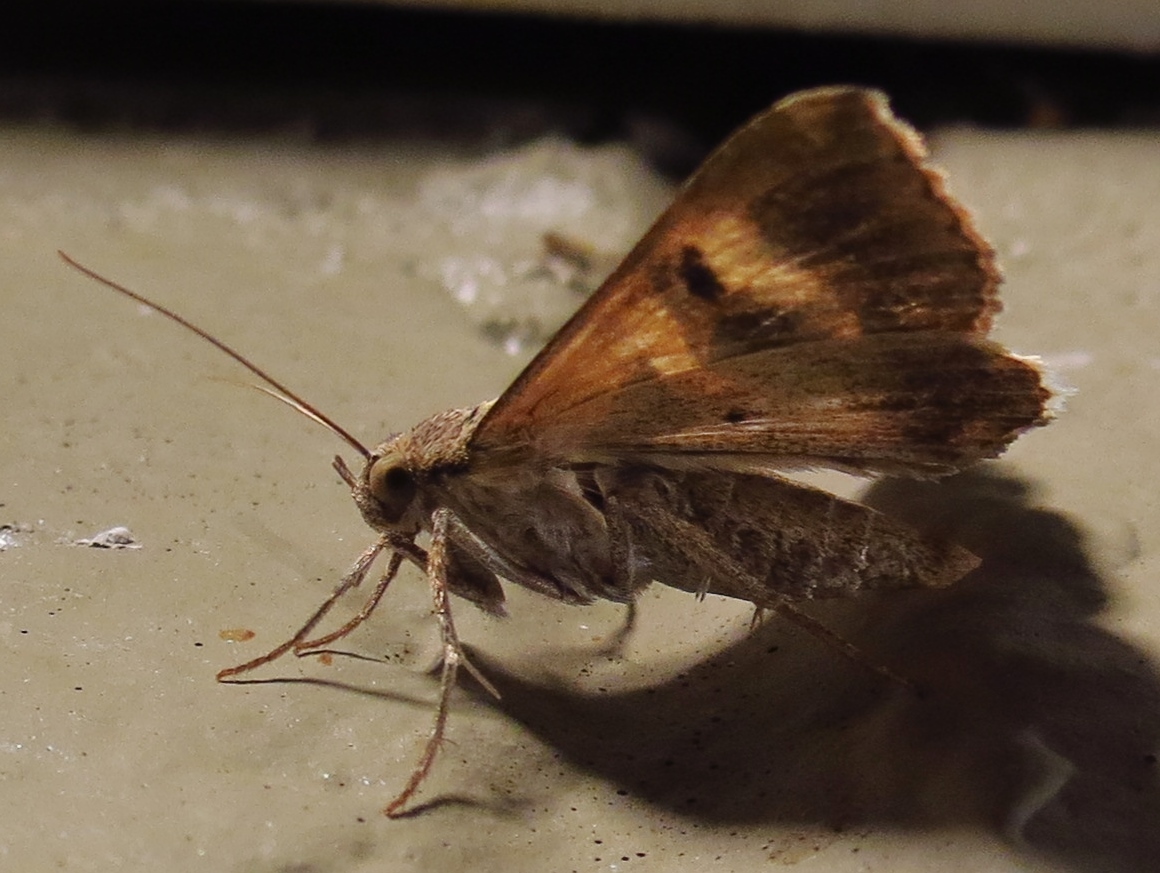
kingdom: Animalia
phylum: Arthropoda
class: Insecta
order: Lepidoptera
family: Erebidae
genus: Melipotis
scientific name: Melipotis cellaris
